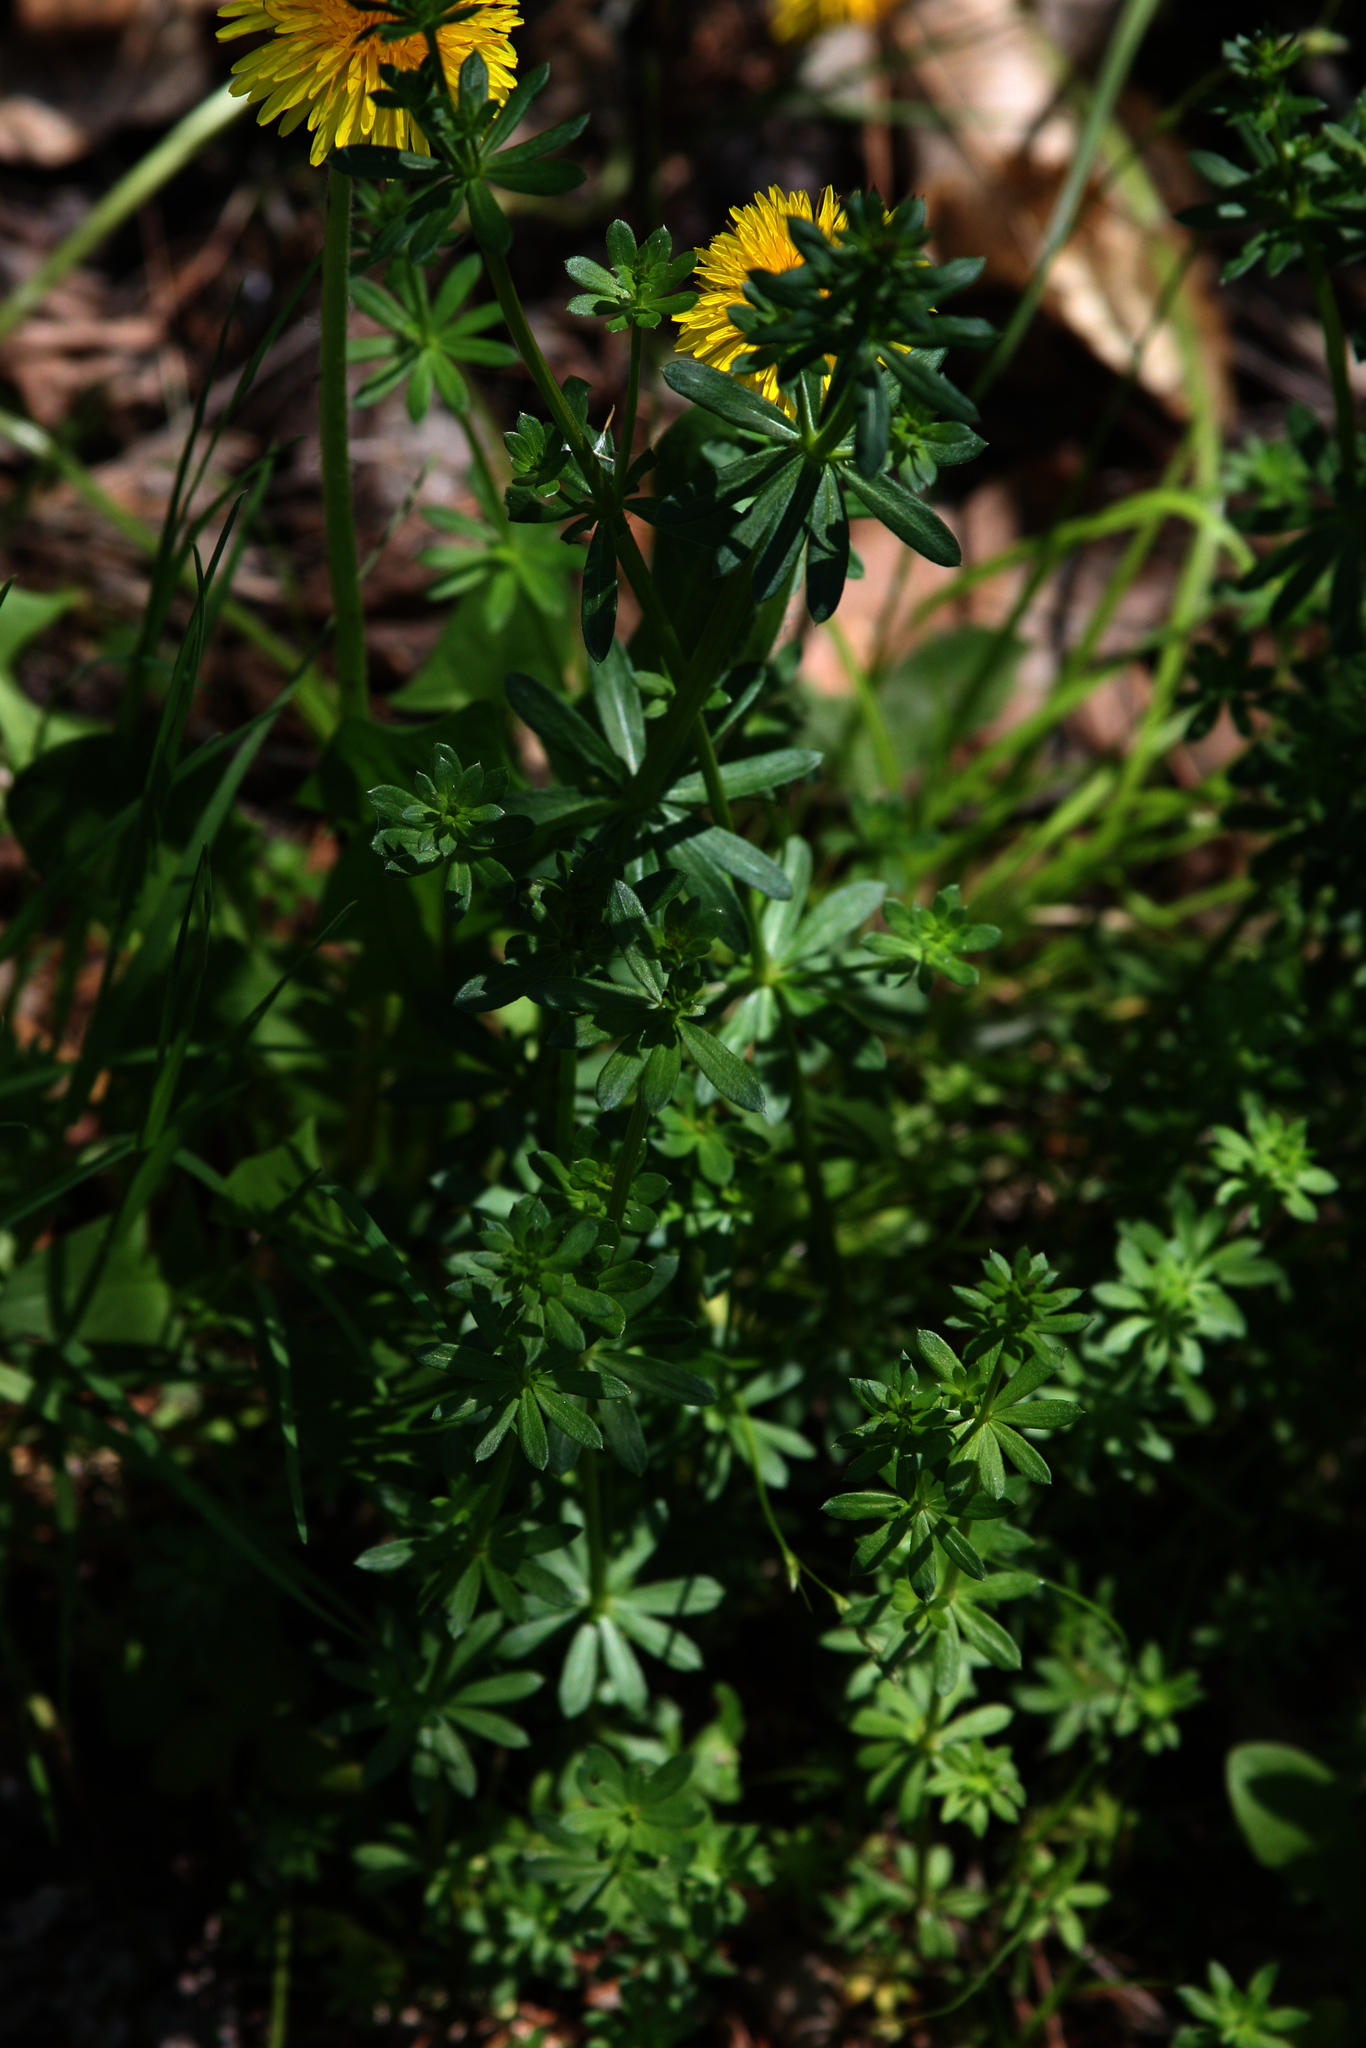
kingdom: Plantae
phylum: Tracheophyta
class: Magnoliopsida
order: Gentianales
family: Rubiaceae
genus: Galium
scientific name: Galium mollugo
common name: Hedge bedstraw
